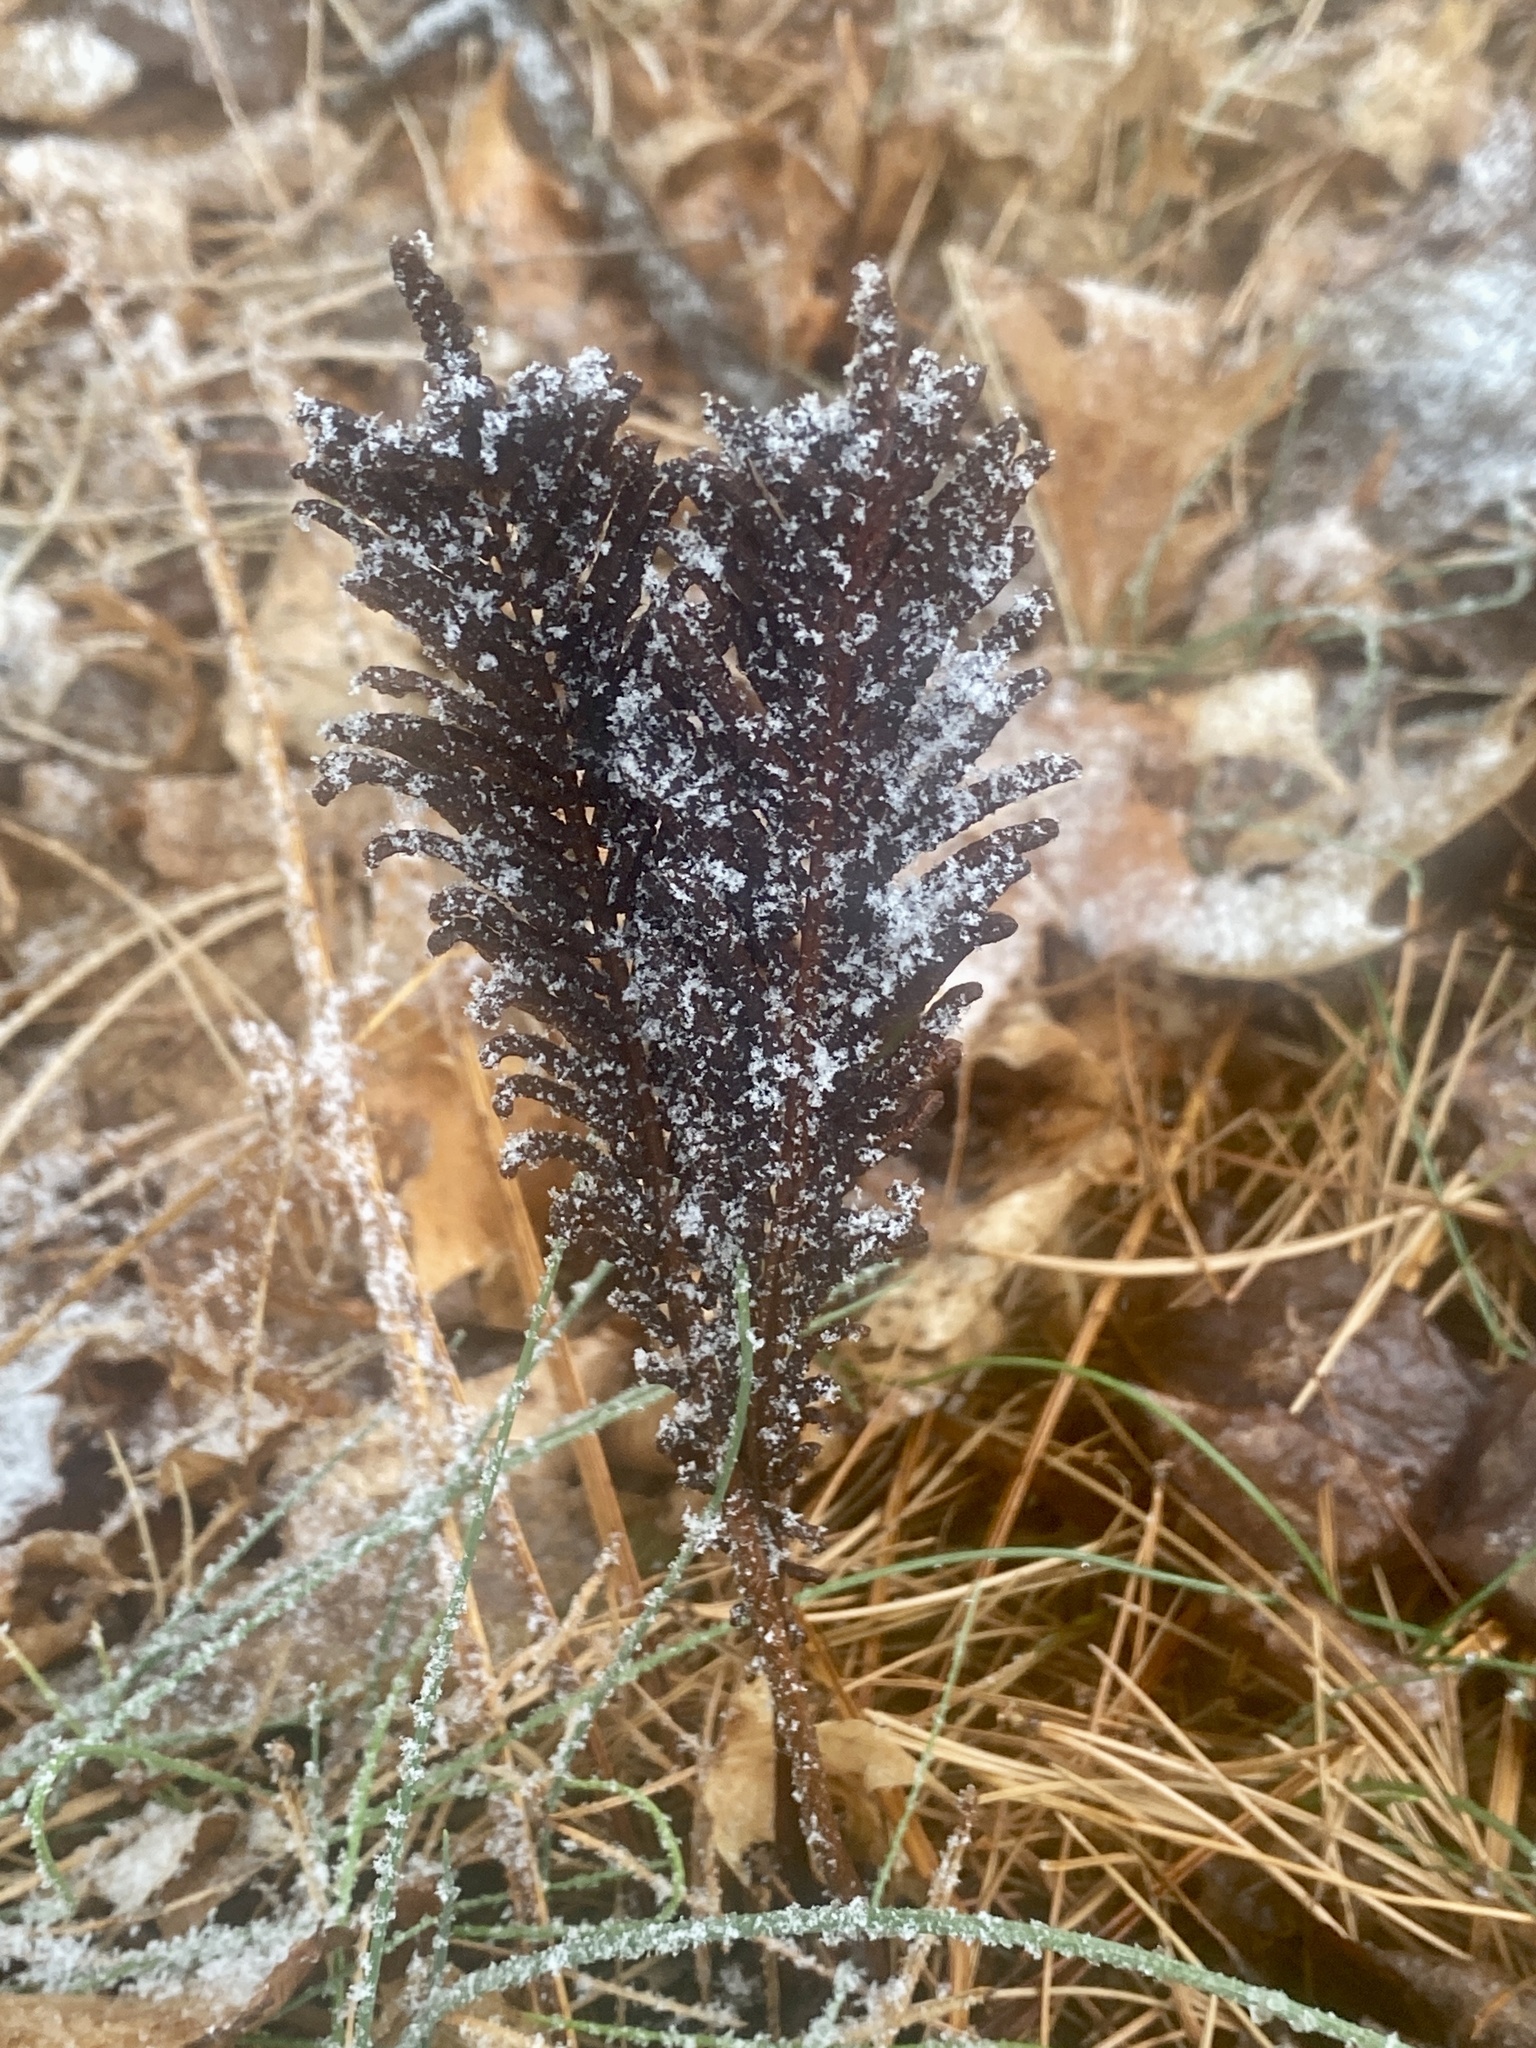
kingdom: Plantae
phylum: Tracheophyta
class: Polypodiopsida
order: Polypodiales
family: Onocleaceae
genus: Matteuccia
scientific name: Matteuccia struthiopteris
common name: Ostrich fern
